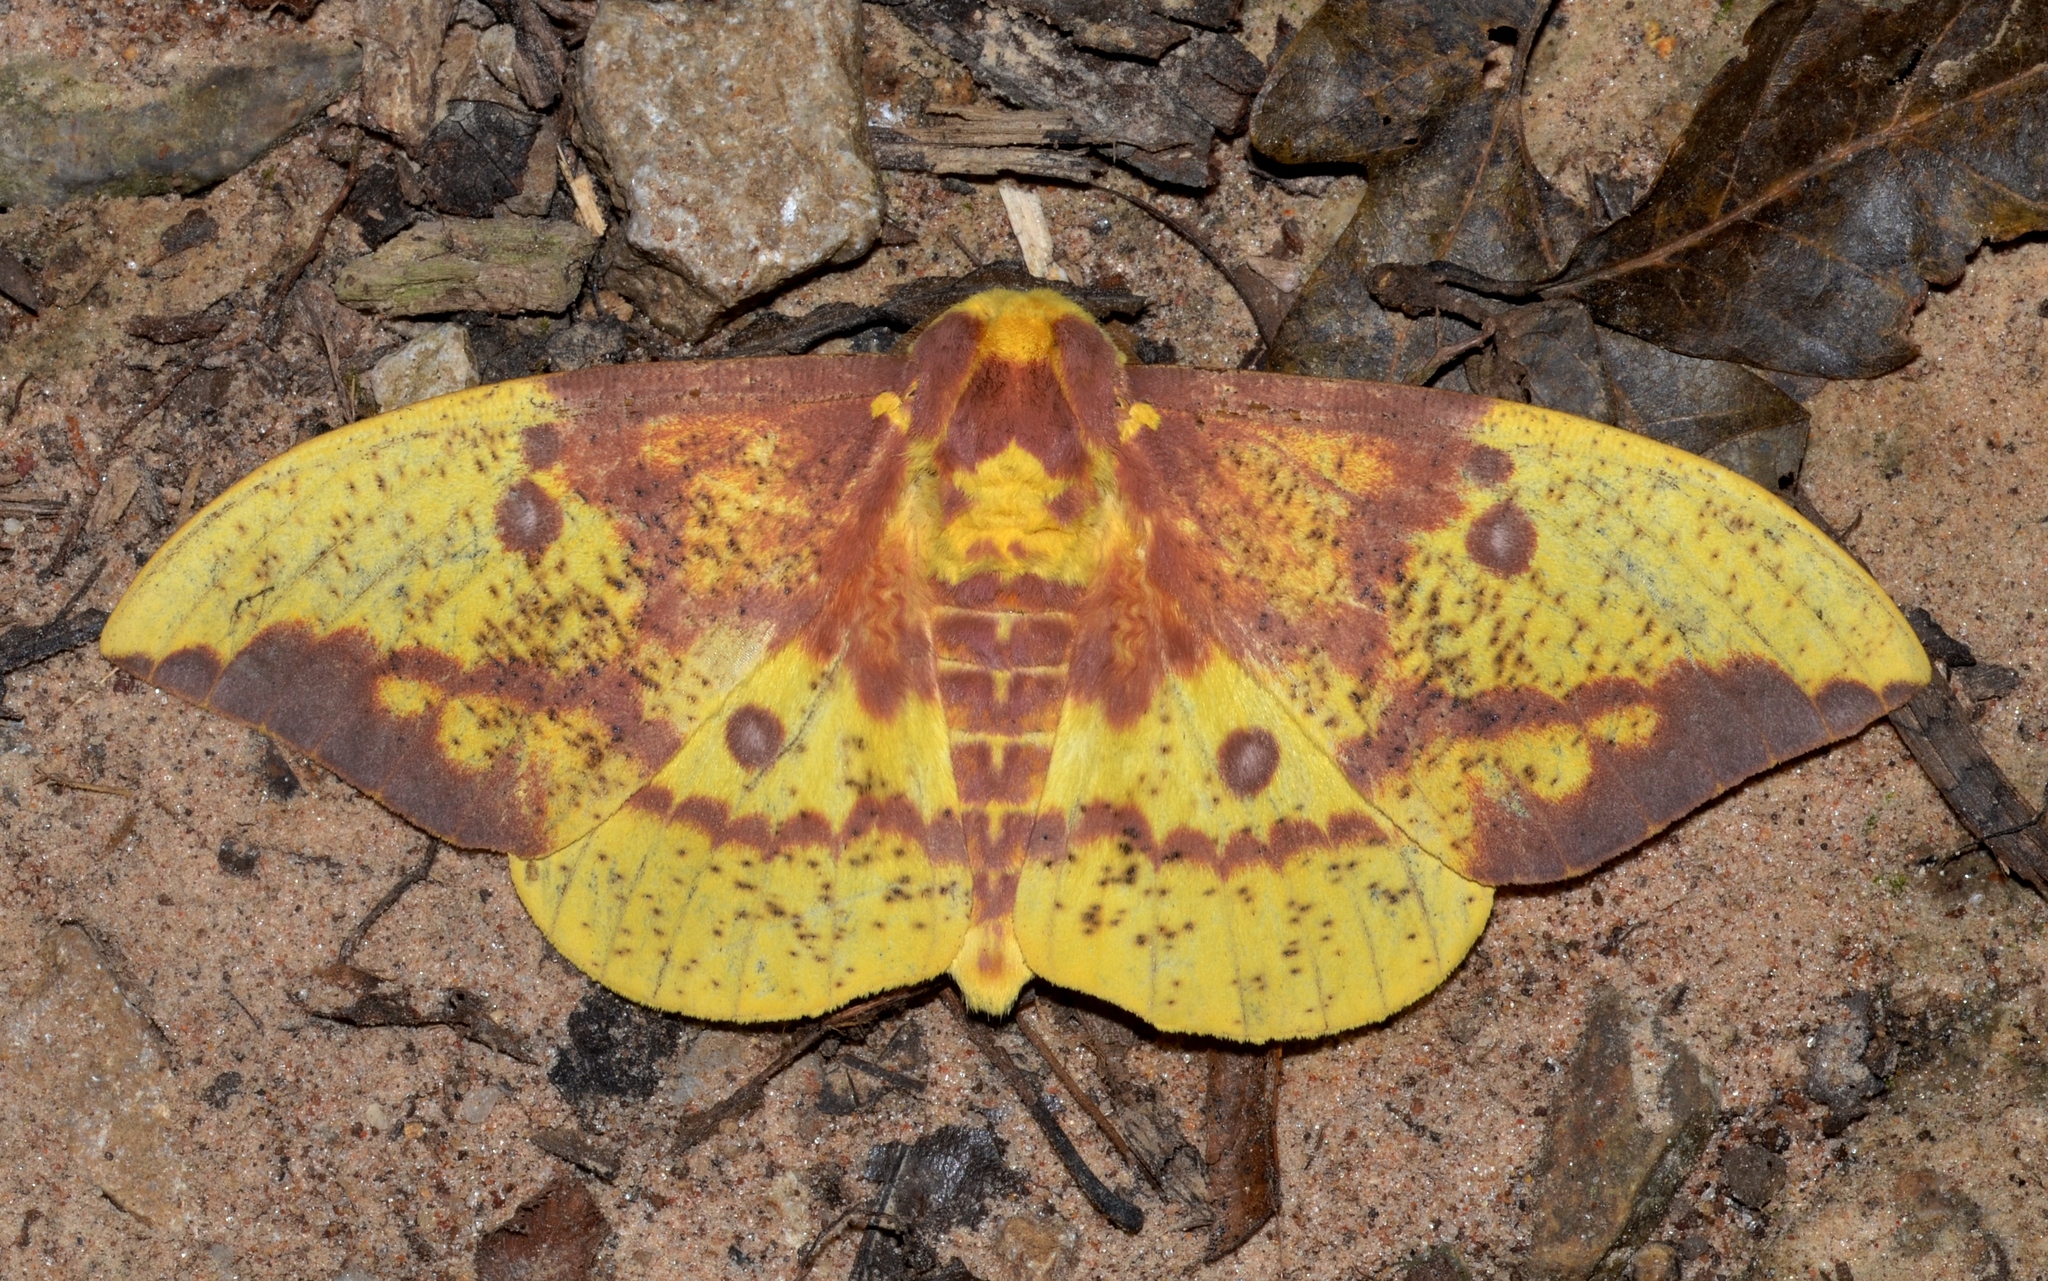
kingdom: Animalia
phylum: Arthropoda
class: Insecta
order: Lepidoptera
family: Saturniidae
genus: Eacles
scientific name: Eacles imperialis
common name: Imperial moth
